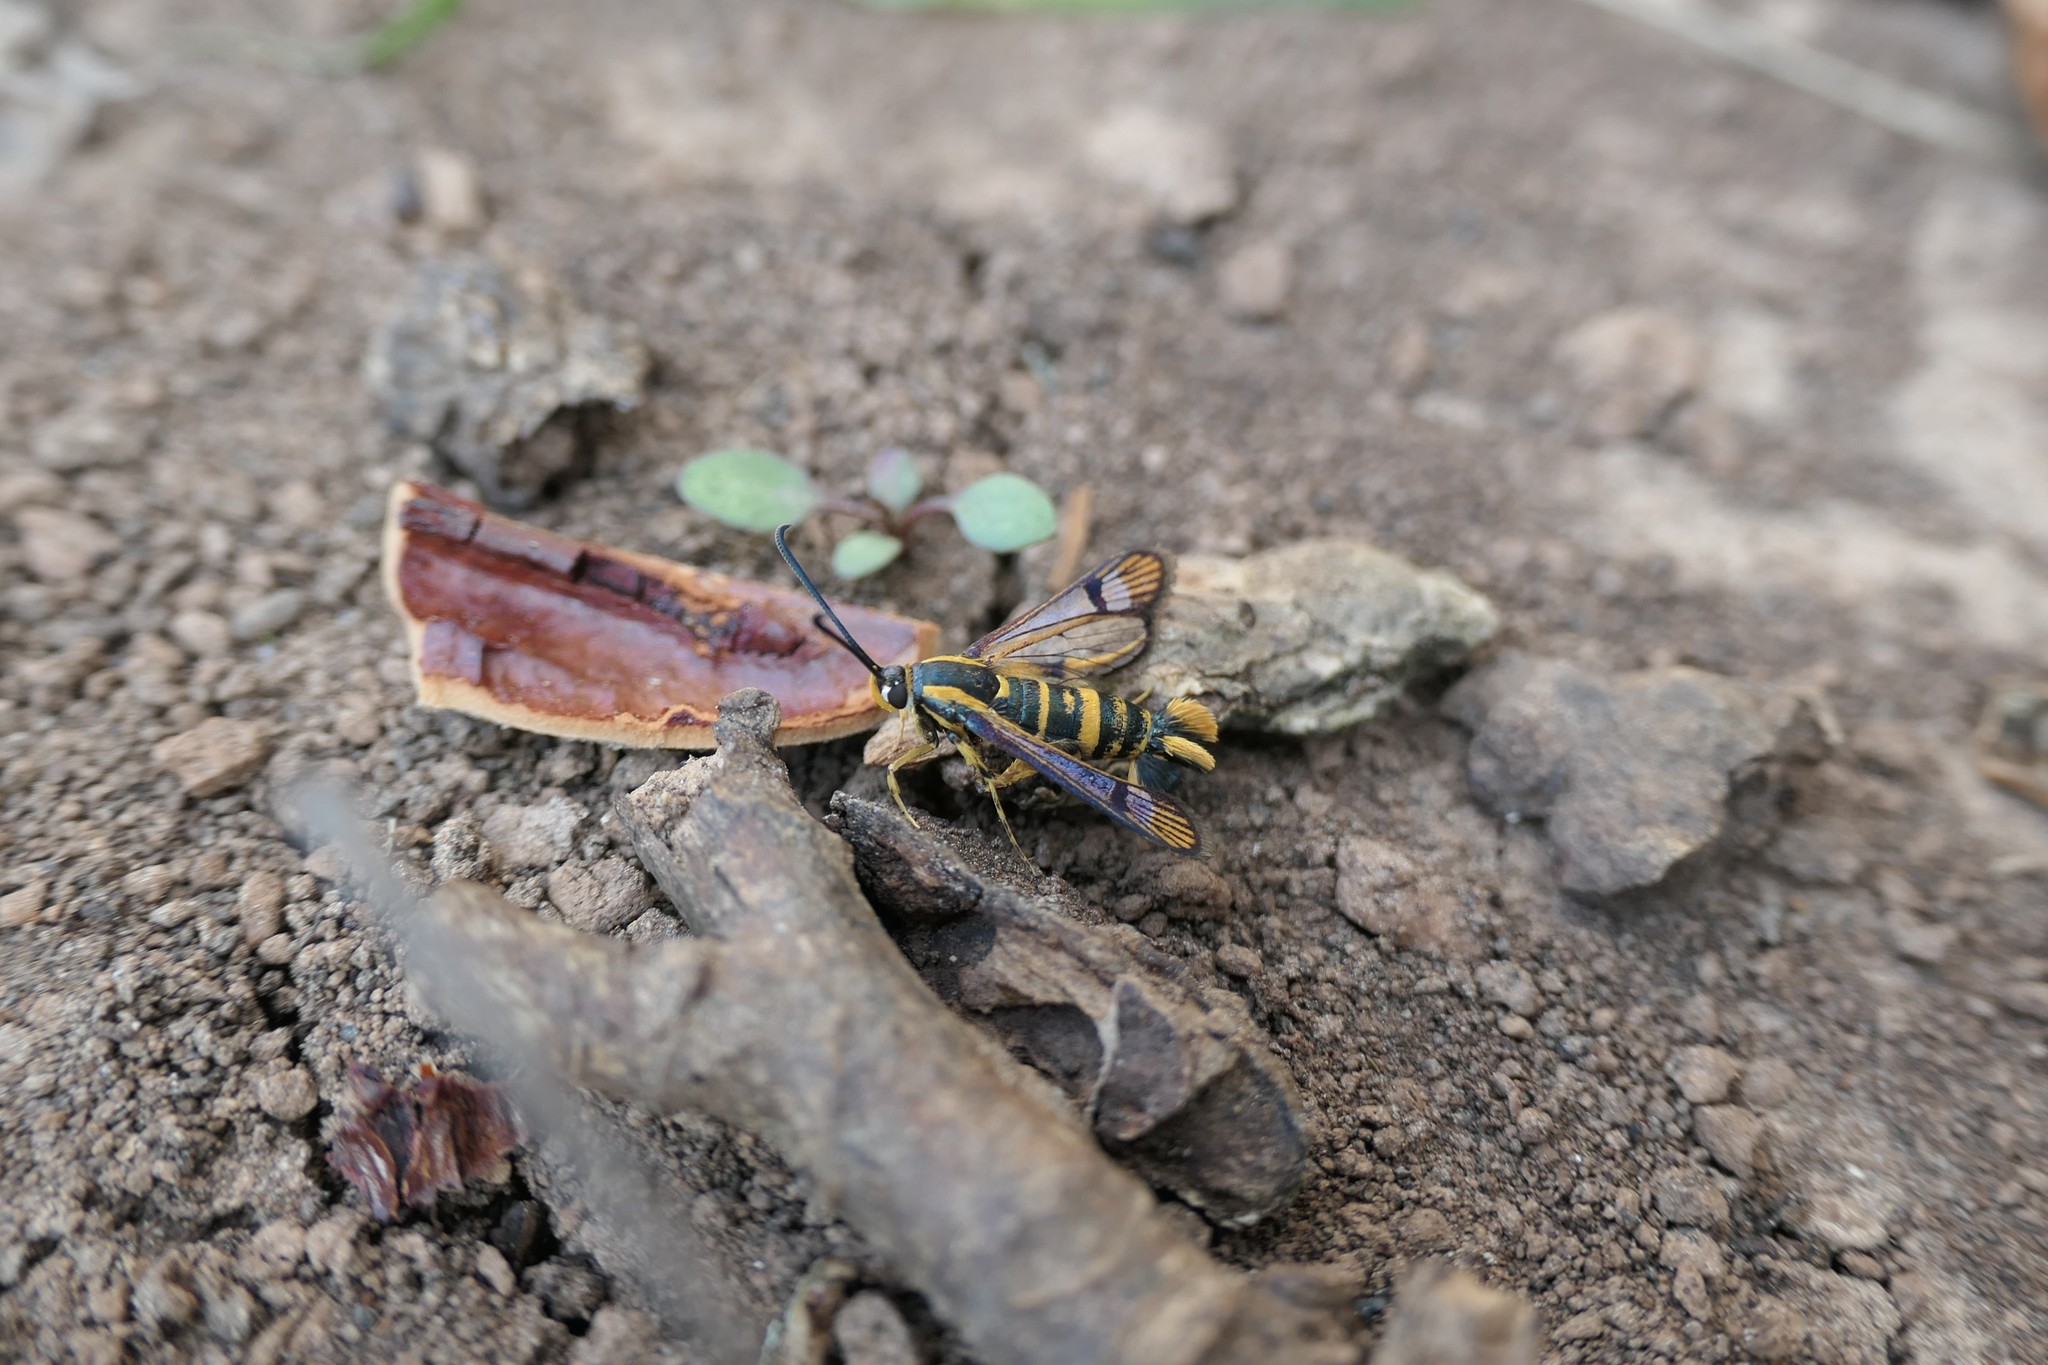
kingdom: Animalia
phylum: Arthropoda
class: Insecta
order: Lepidoptera
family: Sesiidae
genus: Synanthedon
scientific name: Synanthedon scitula
